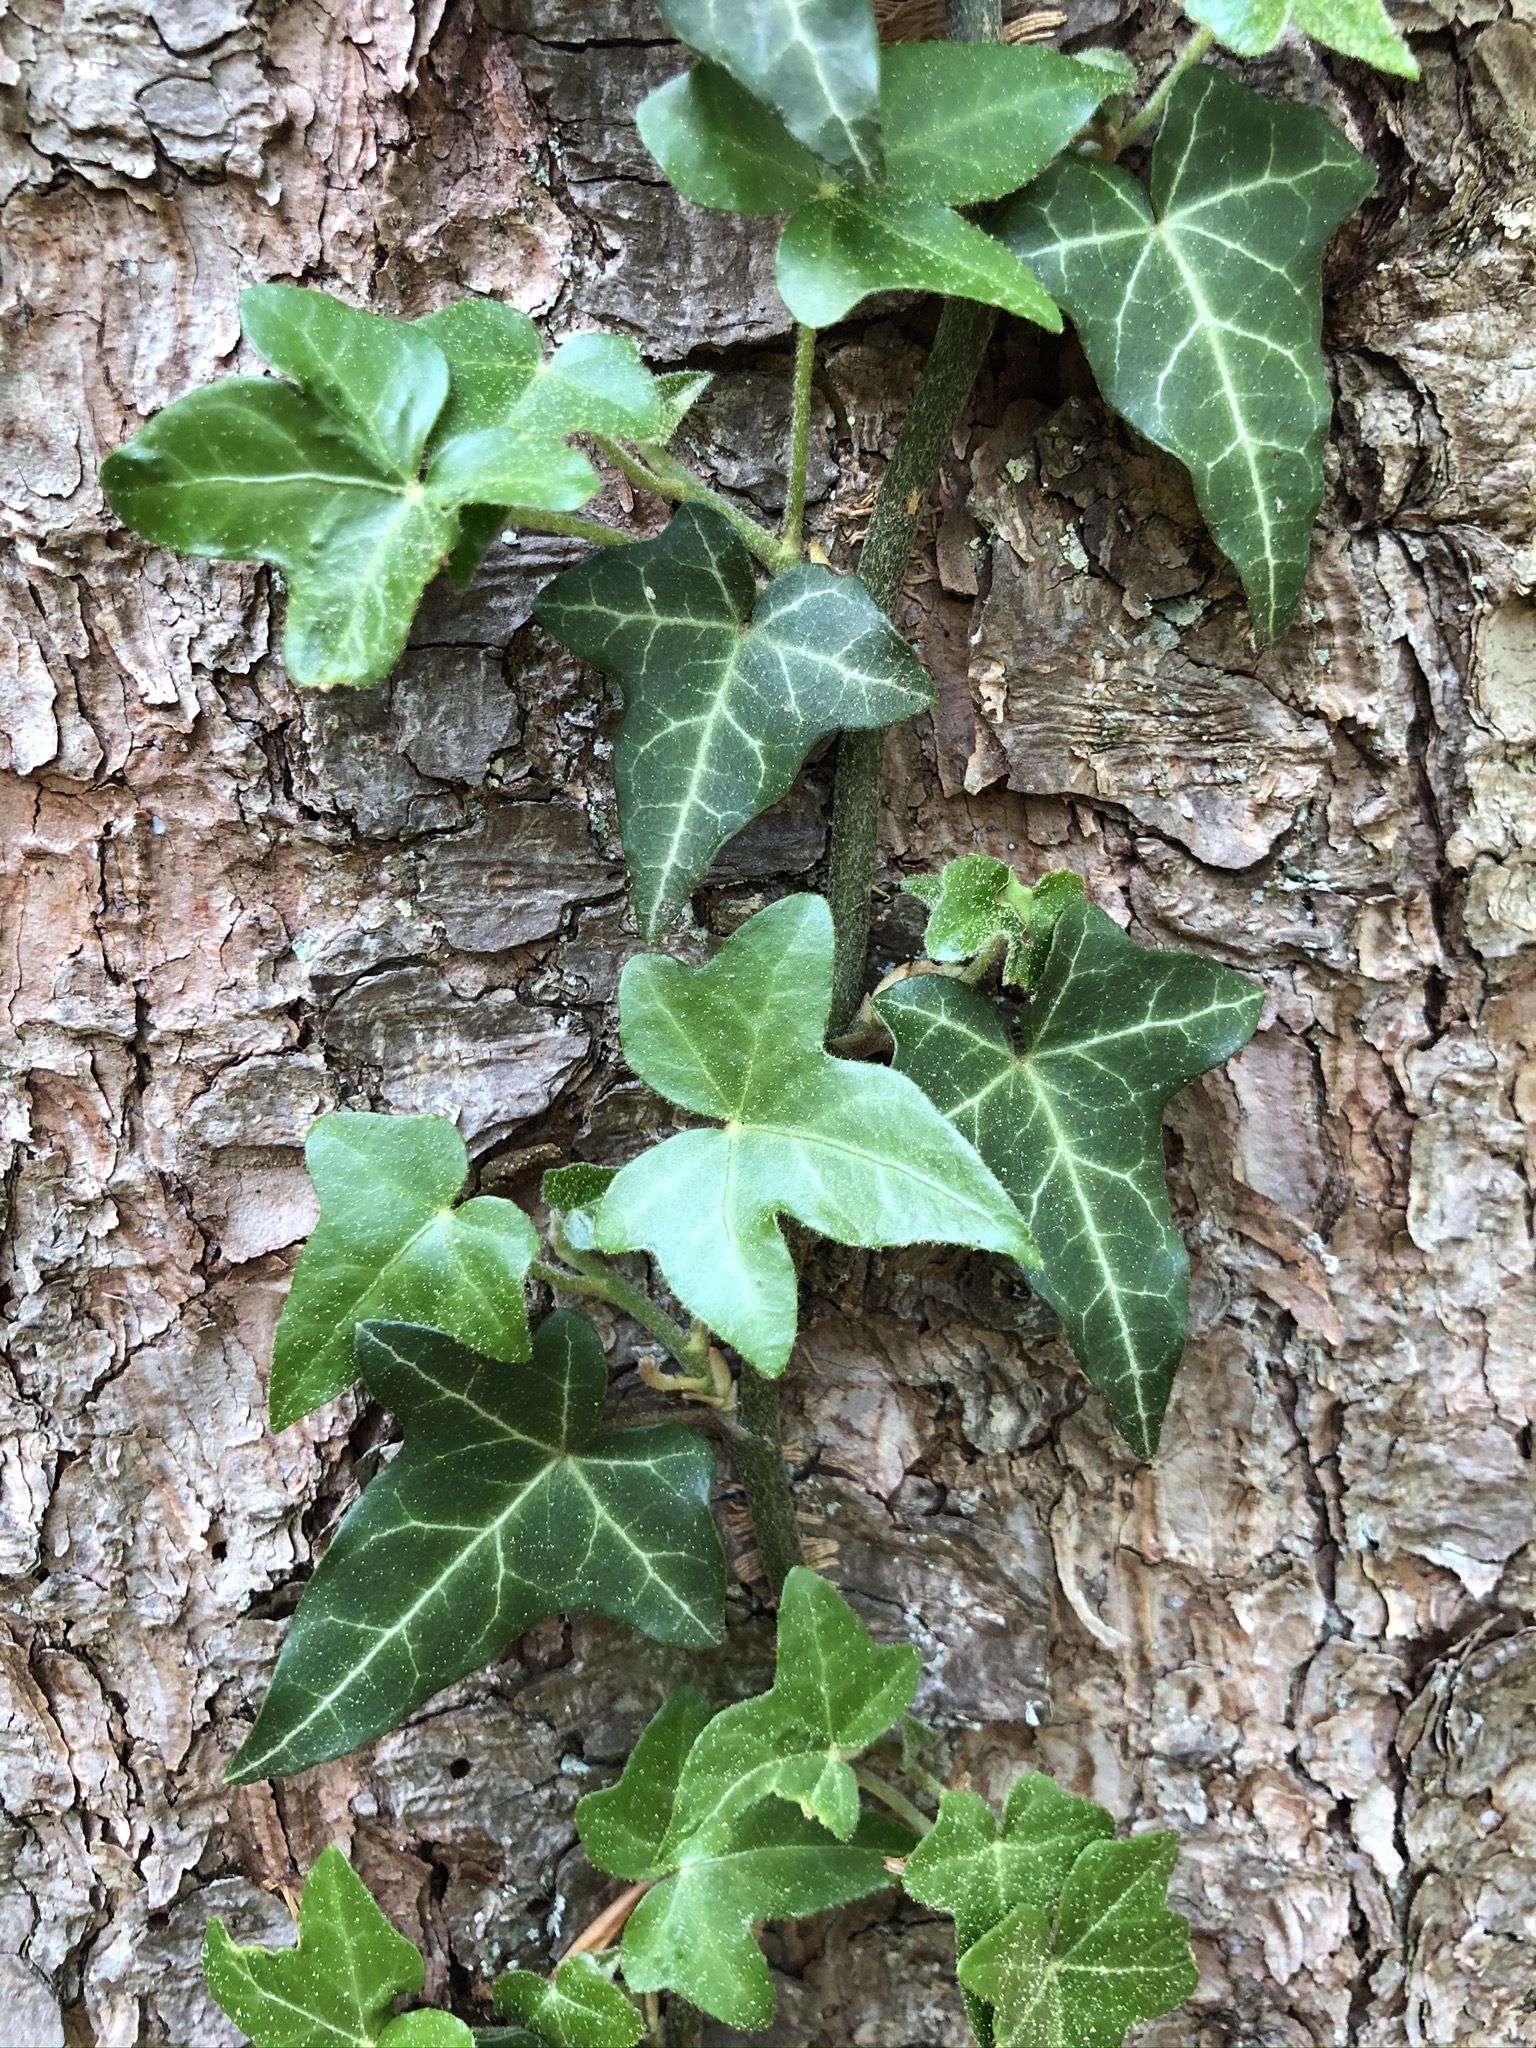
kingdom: Plantae
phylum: Tracheophyta
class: Magnoliopsida
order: Apiales
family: Araliaceae
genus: Hedera
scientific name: Hedera helix
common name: Ivy
